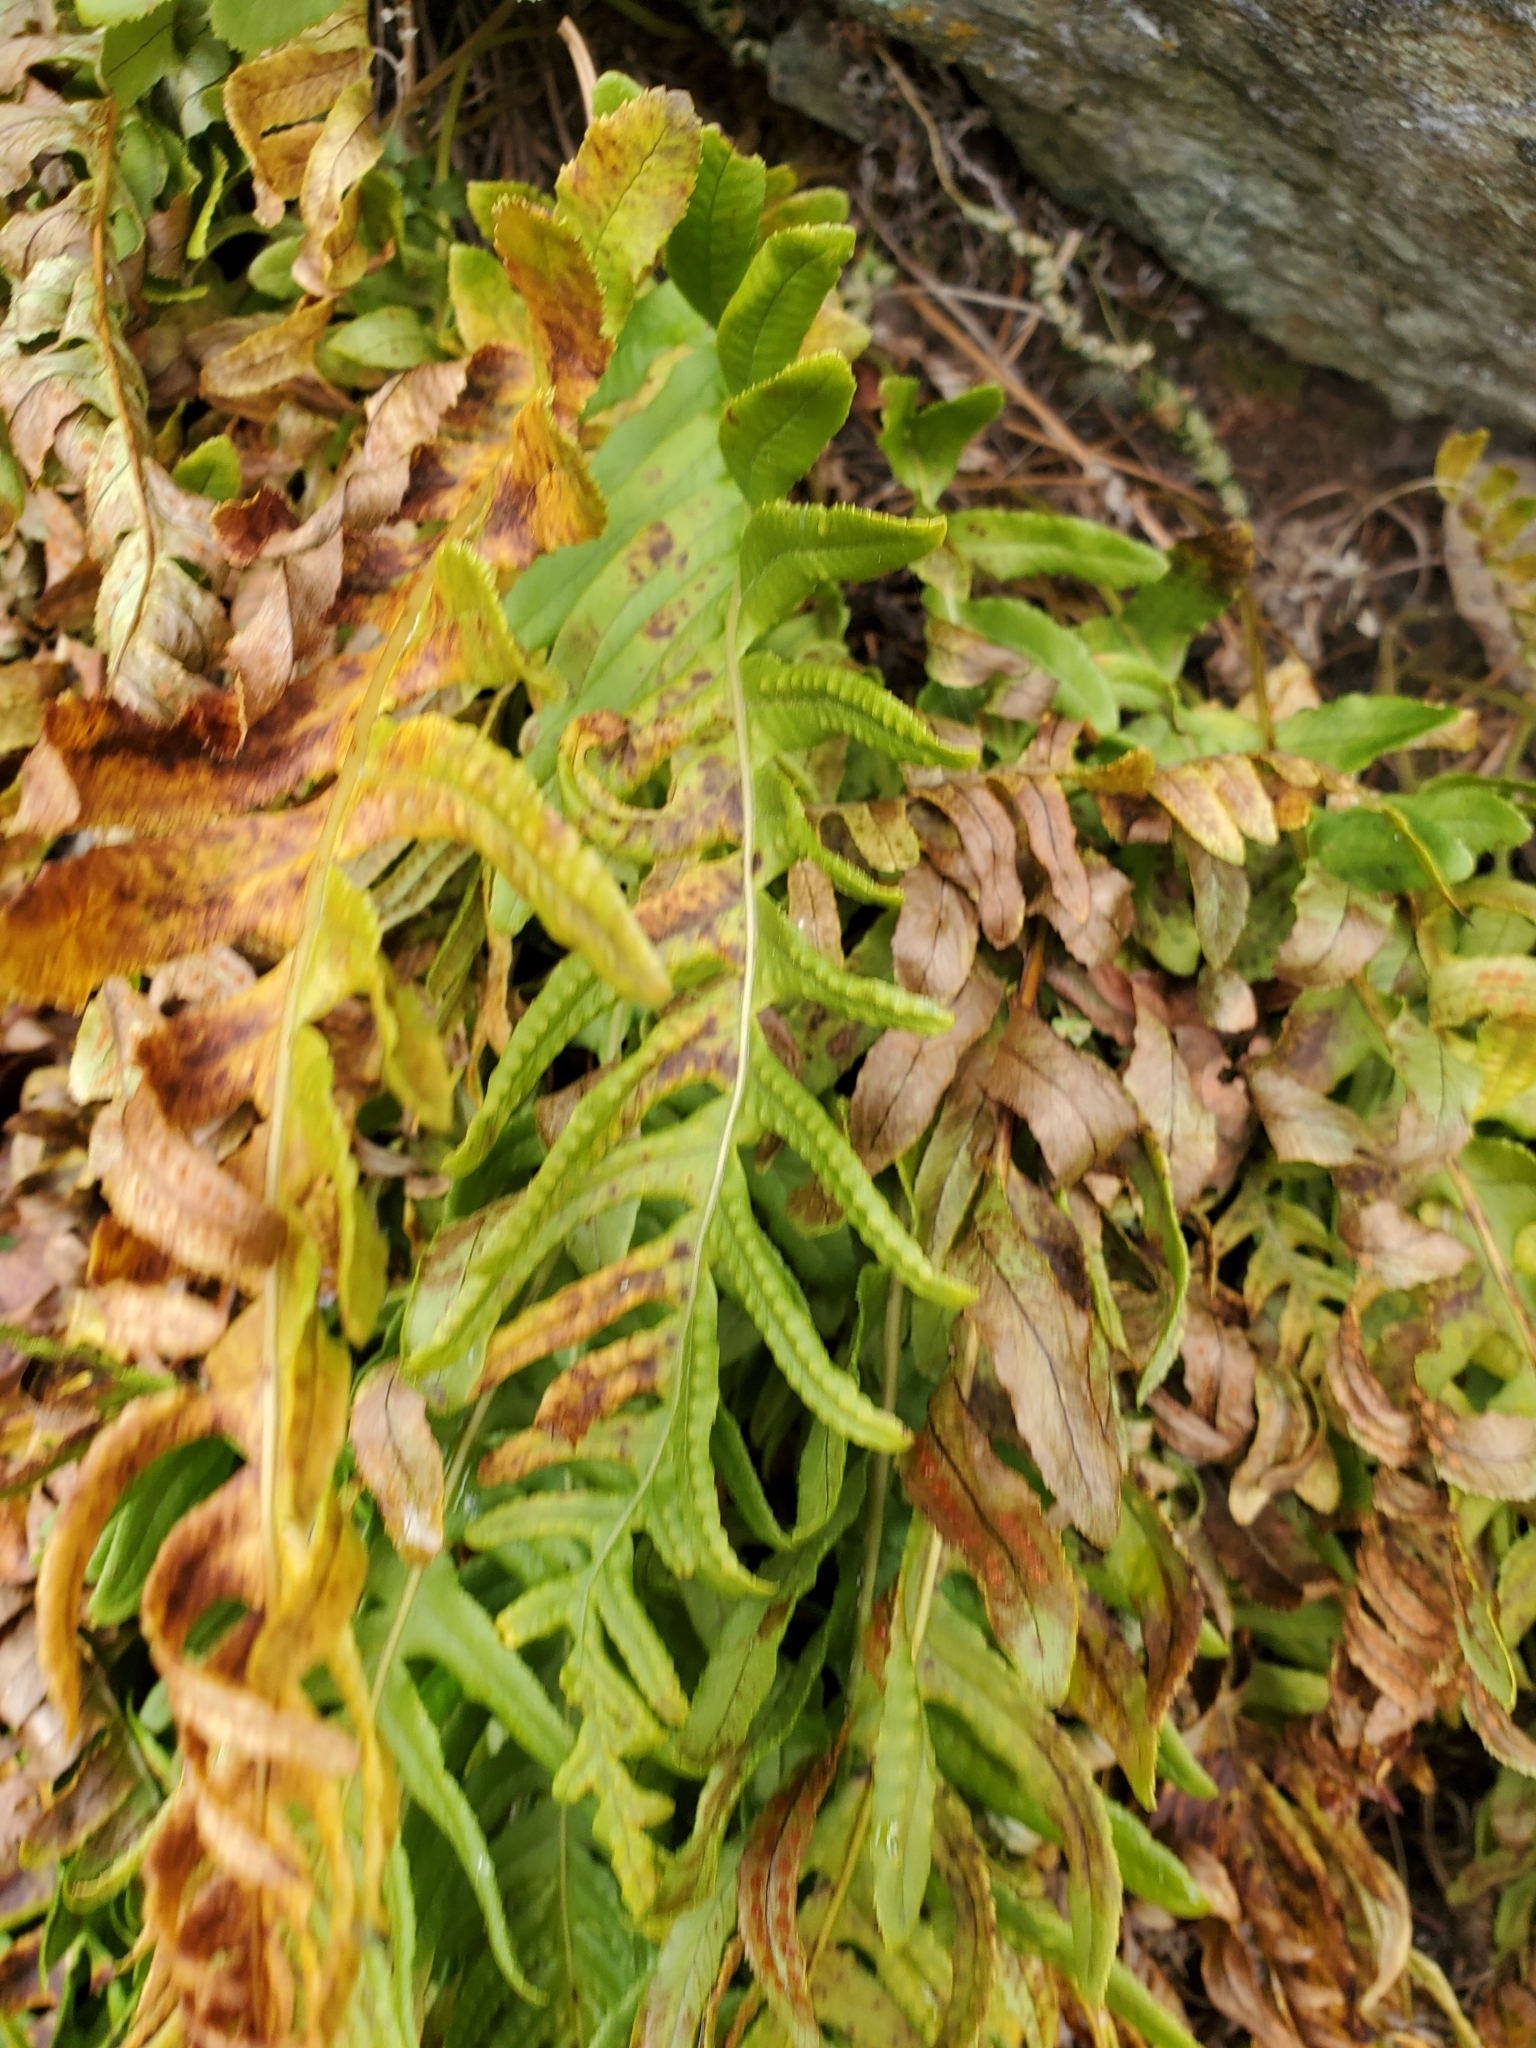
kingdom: Plantae
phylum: Tracheophyta
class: Polypodiopsida
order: Polypodiales
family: Polypodiaceae
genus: Polypodium
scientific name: Polypodium glycyrrhiza
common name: Licorice fern
